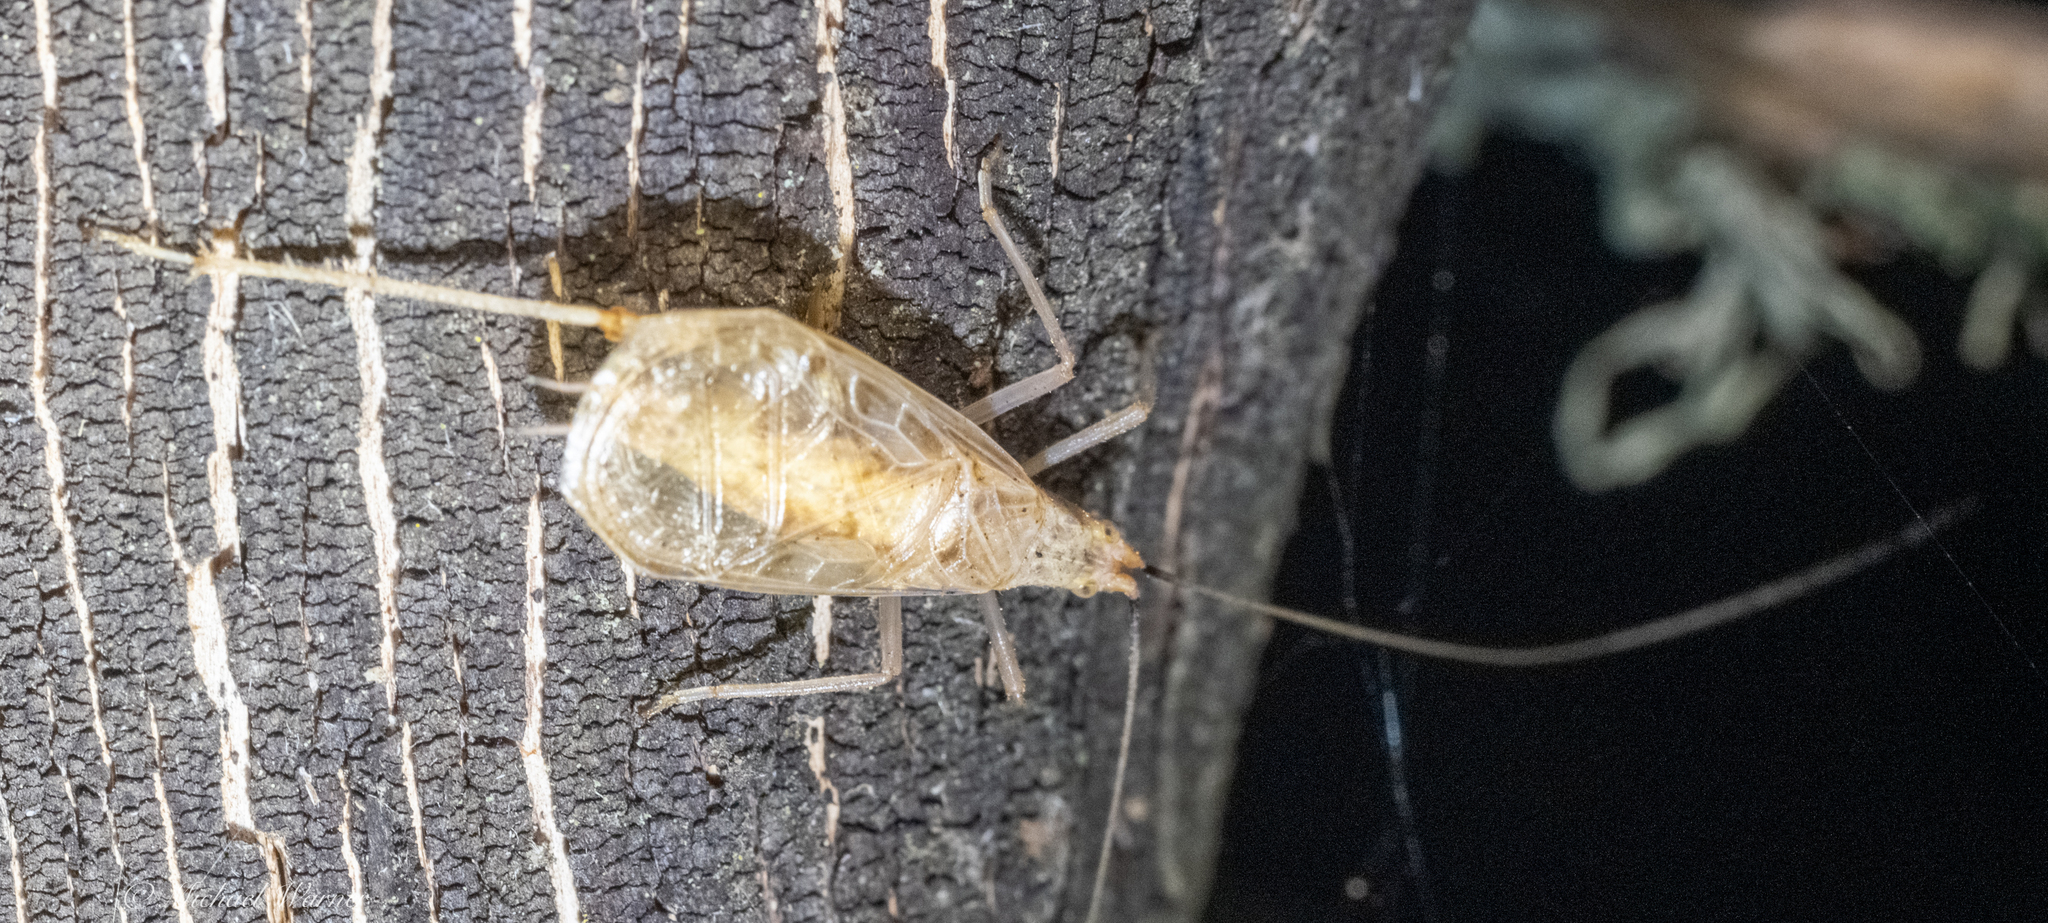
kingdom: Animalia
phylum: Arthropoda
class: Insecta
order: Orthoptera
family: Gryllidae
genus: Oecanthus
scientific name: Oecanthus californicus
